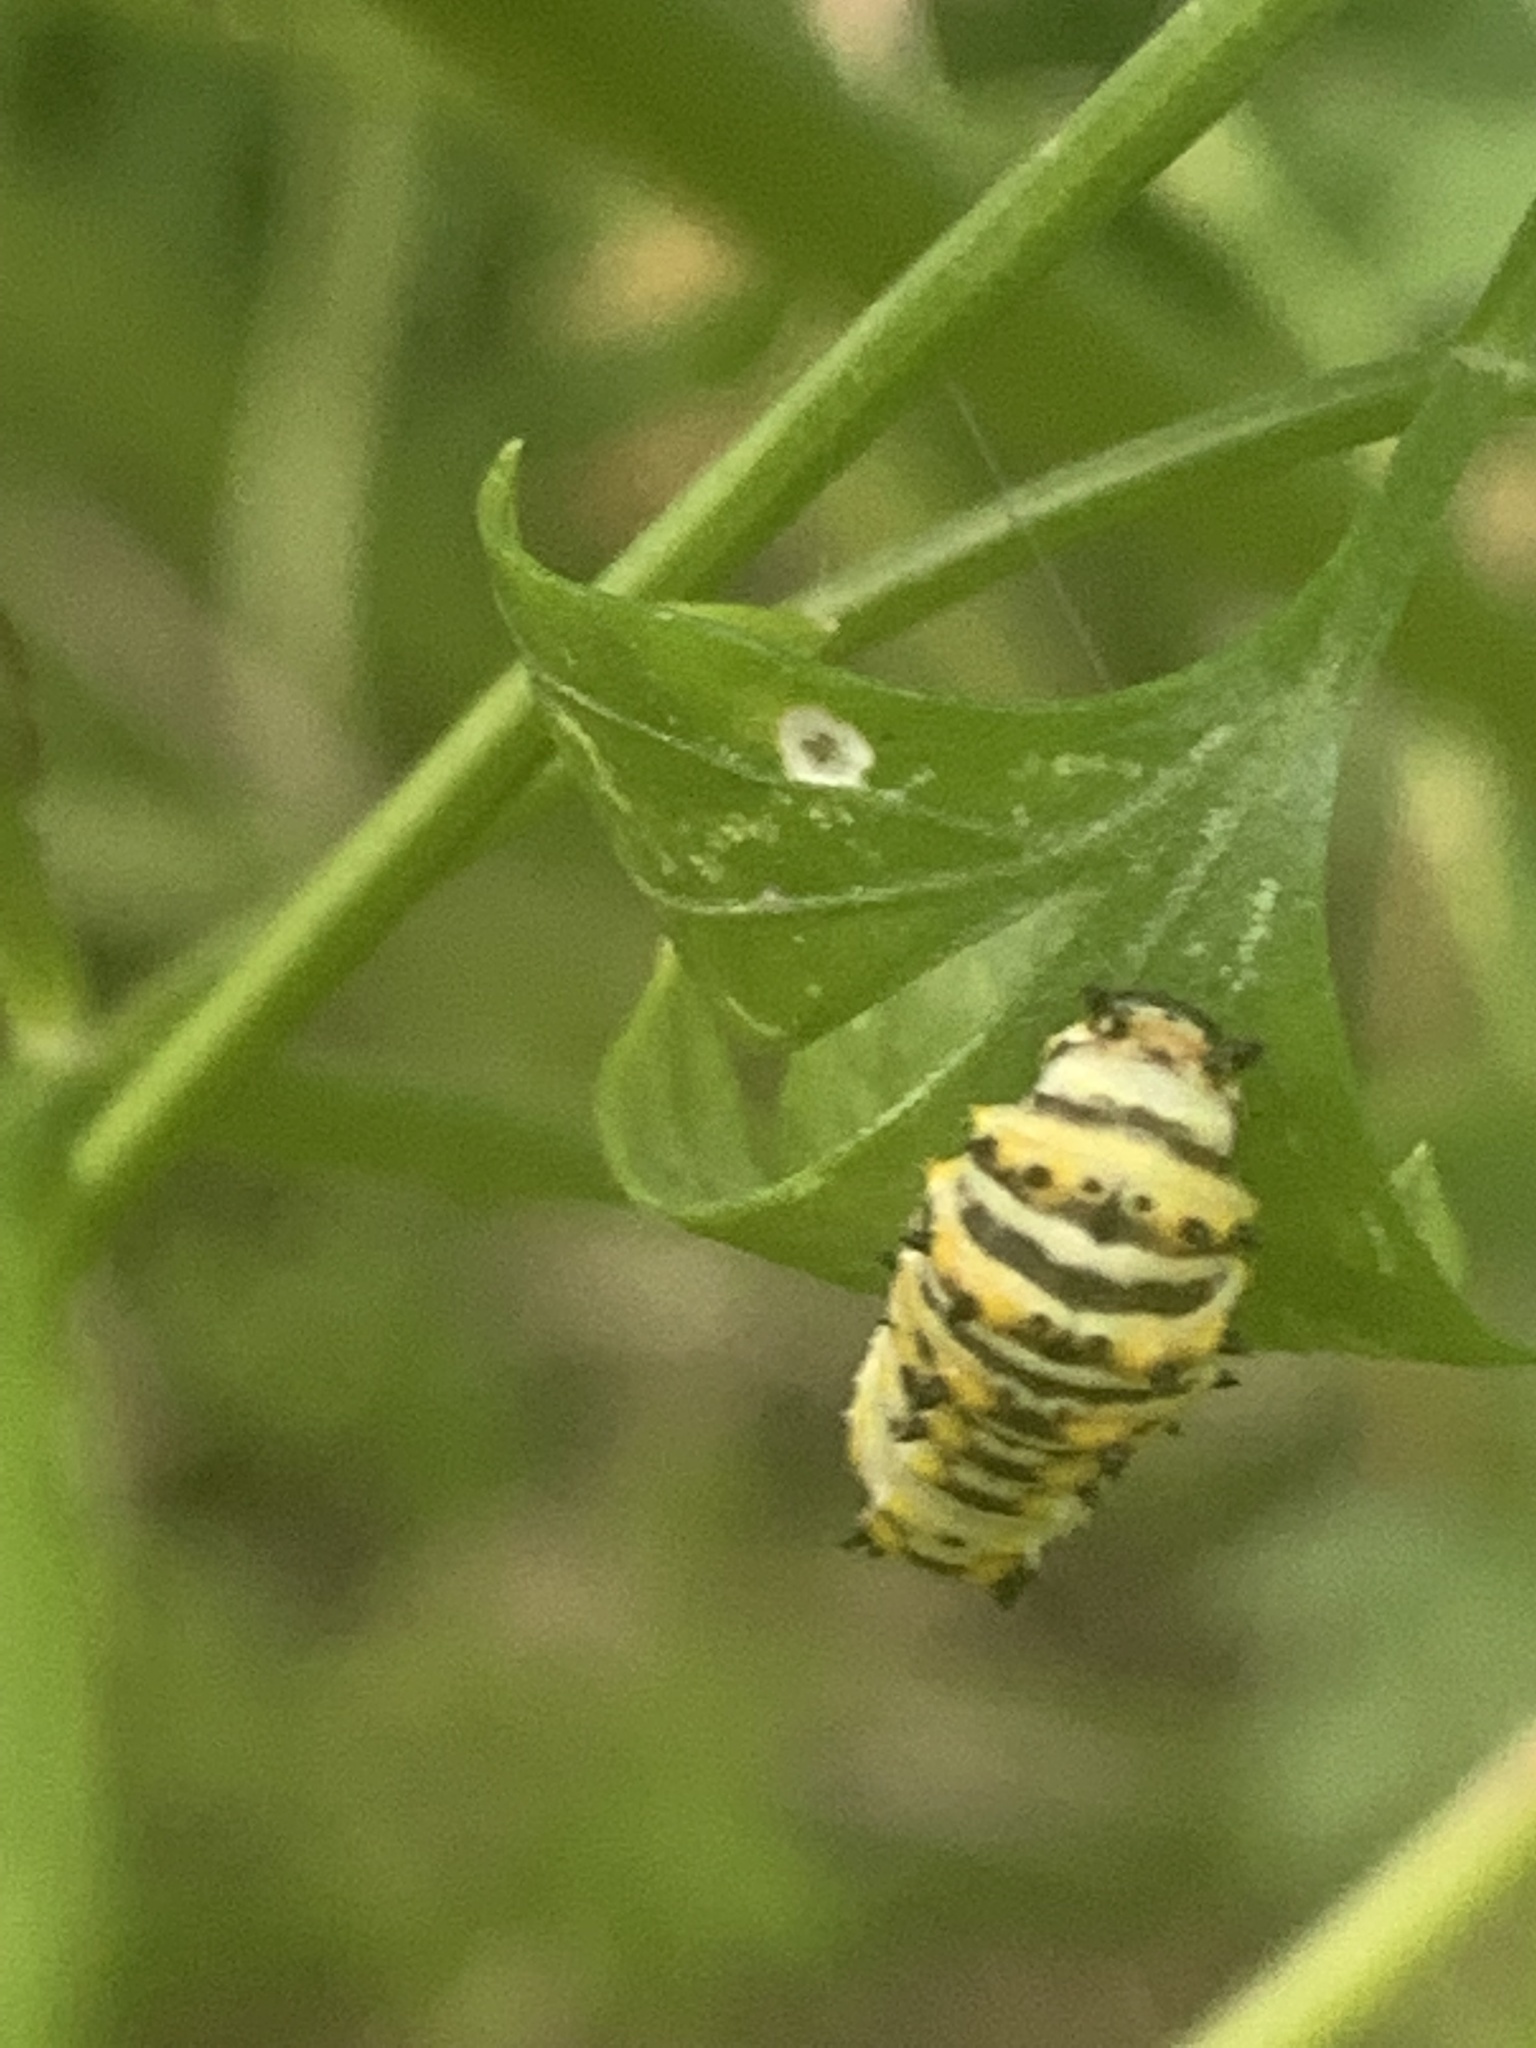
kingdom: Animalia
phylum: Arthropoda
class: Insecta
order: Lepidoptera
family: Papilionidae
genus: Papilio
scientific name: Papilio polyxenes
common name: Black swallowtail
